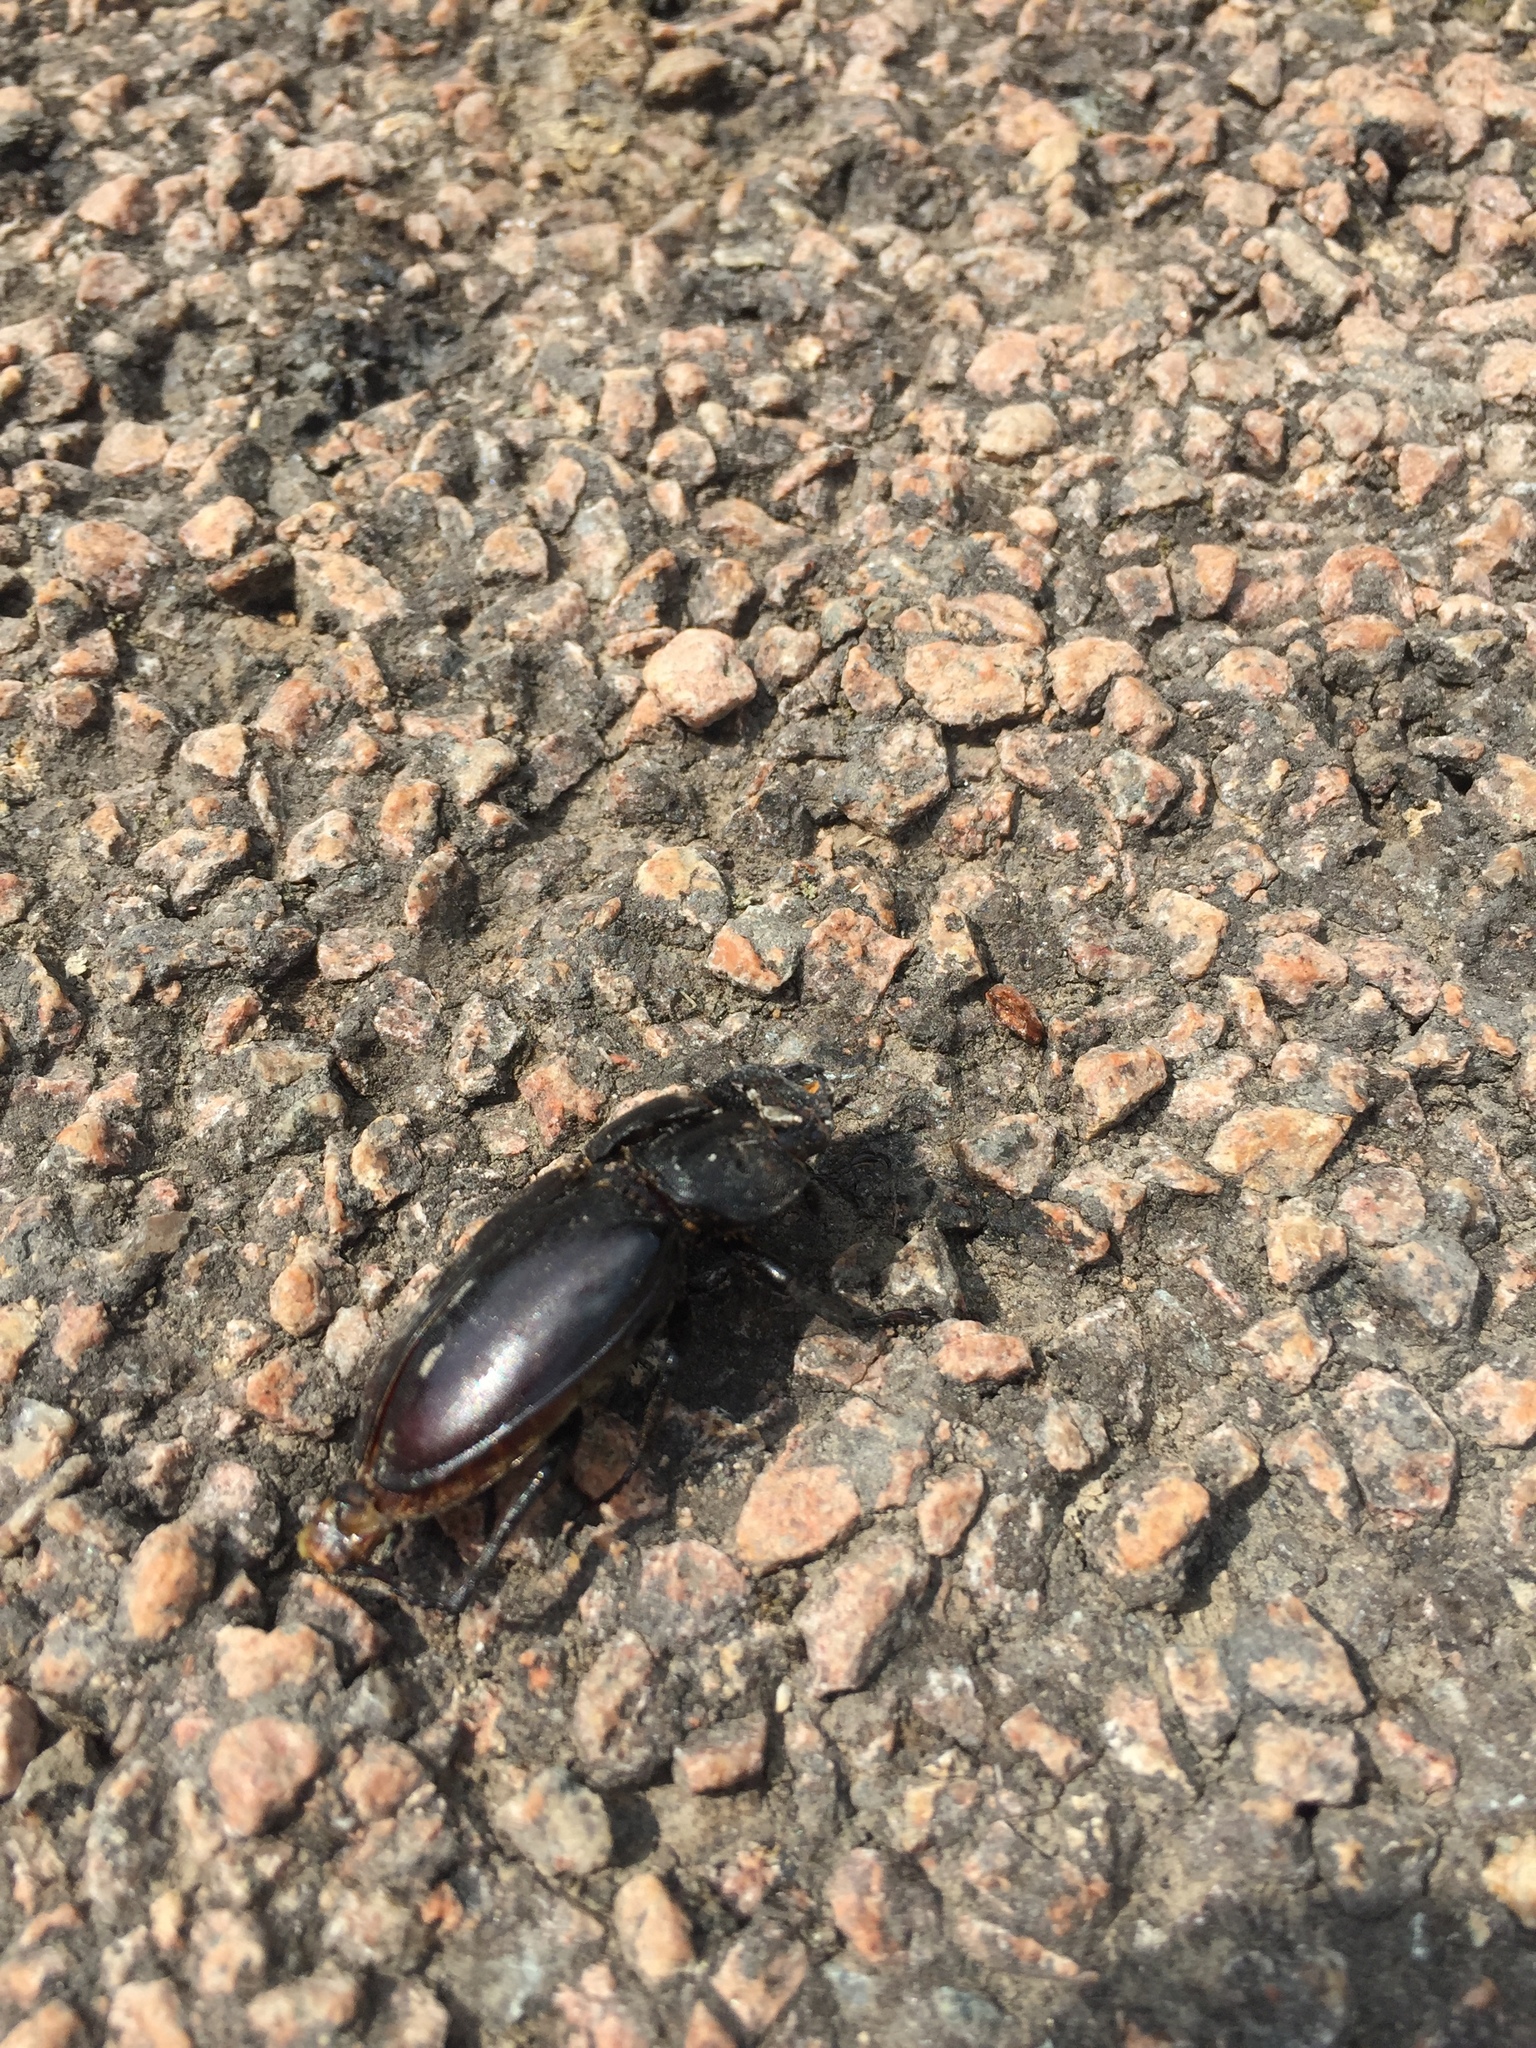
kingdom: Animalia
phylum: Arthropoda
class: Insecta
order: Coleoptera
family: Lucanidae
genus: Lucanus
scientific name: Lucanus cervus
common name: Stag beetle
